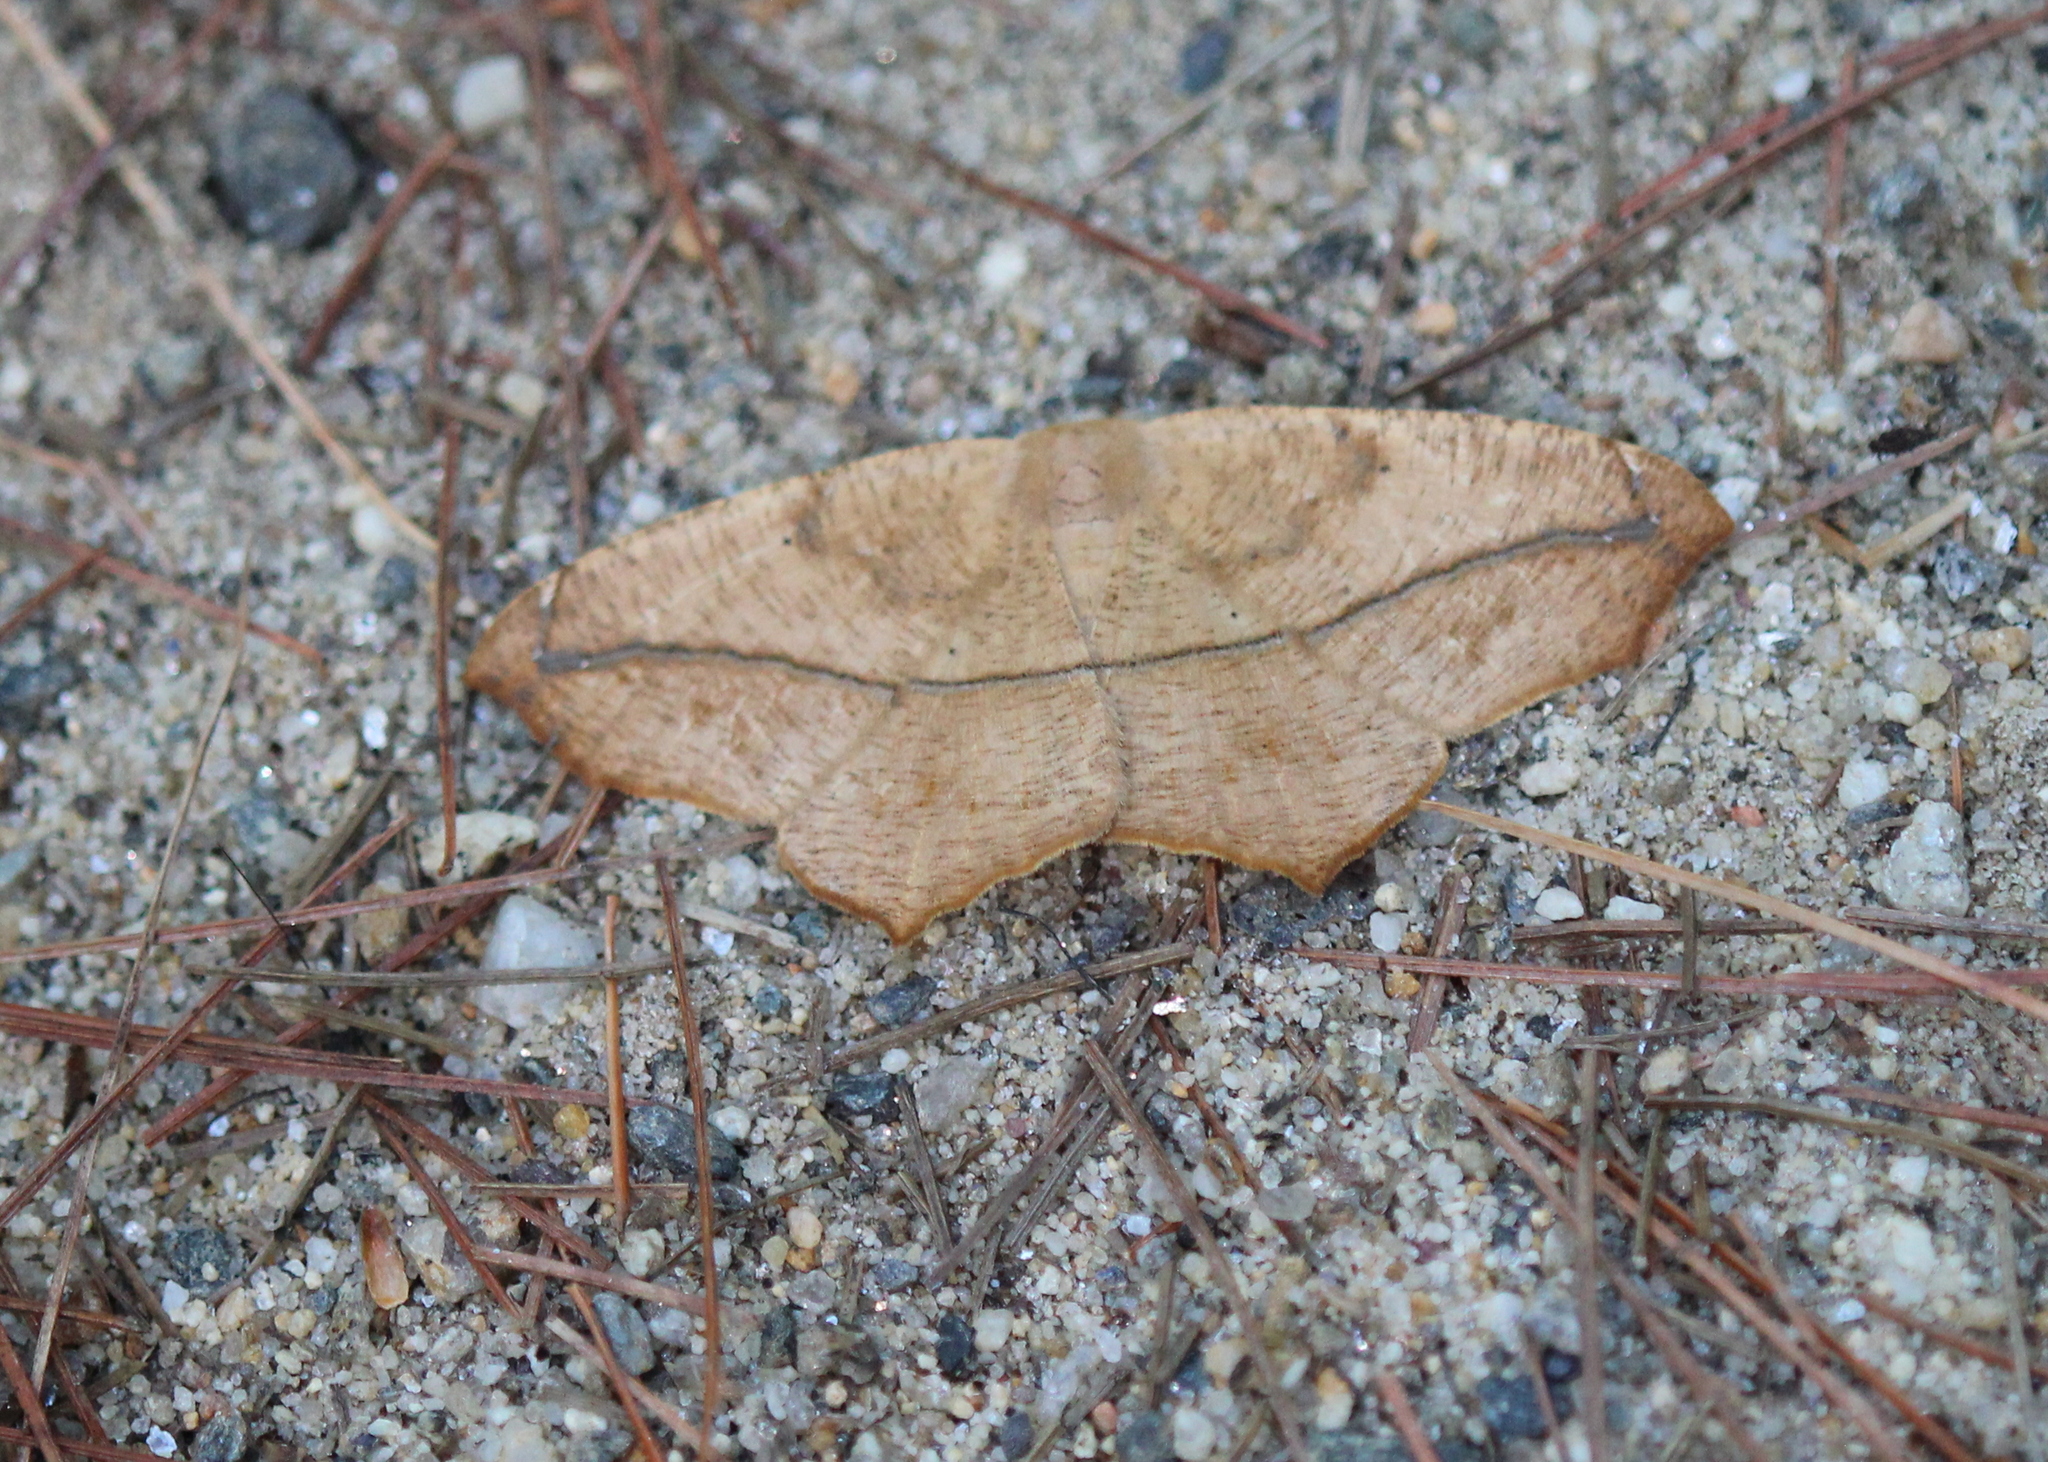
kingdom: Animalia
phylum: Arthropoda
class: Insecta
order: Lepidoptera
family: Geometridae
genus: Prochoerodes
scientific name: Prochoerodes lineola
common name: Large maple spanworm
